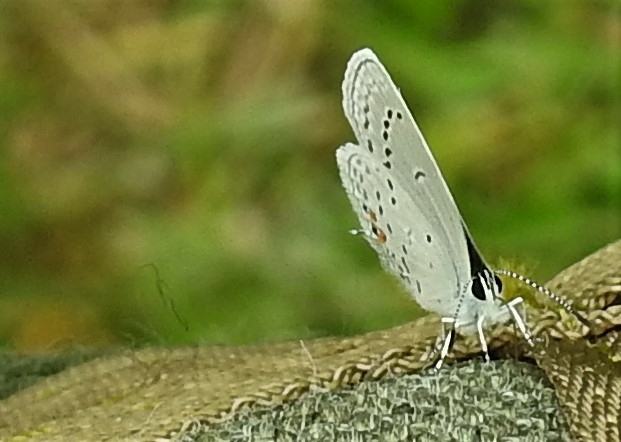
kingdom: Animalia
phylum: Arthropoda
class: Insecta
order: Lepidoptera
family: Lycaenidae
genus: Elkalyce
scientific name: Elkalyce comyntas
